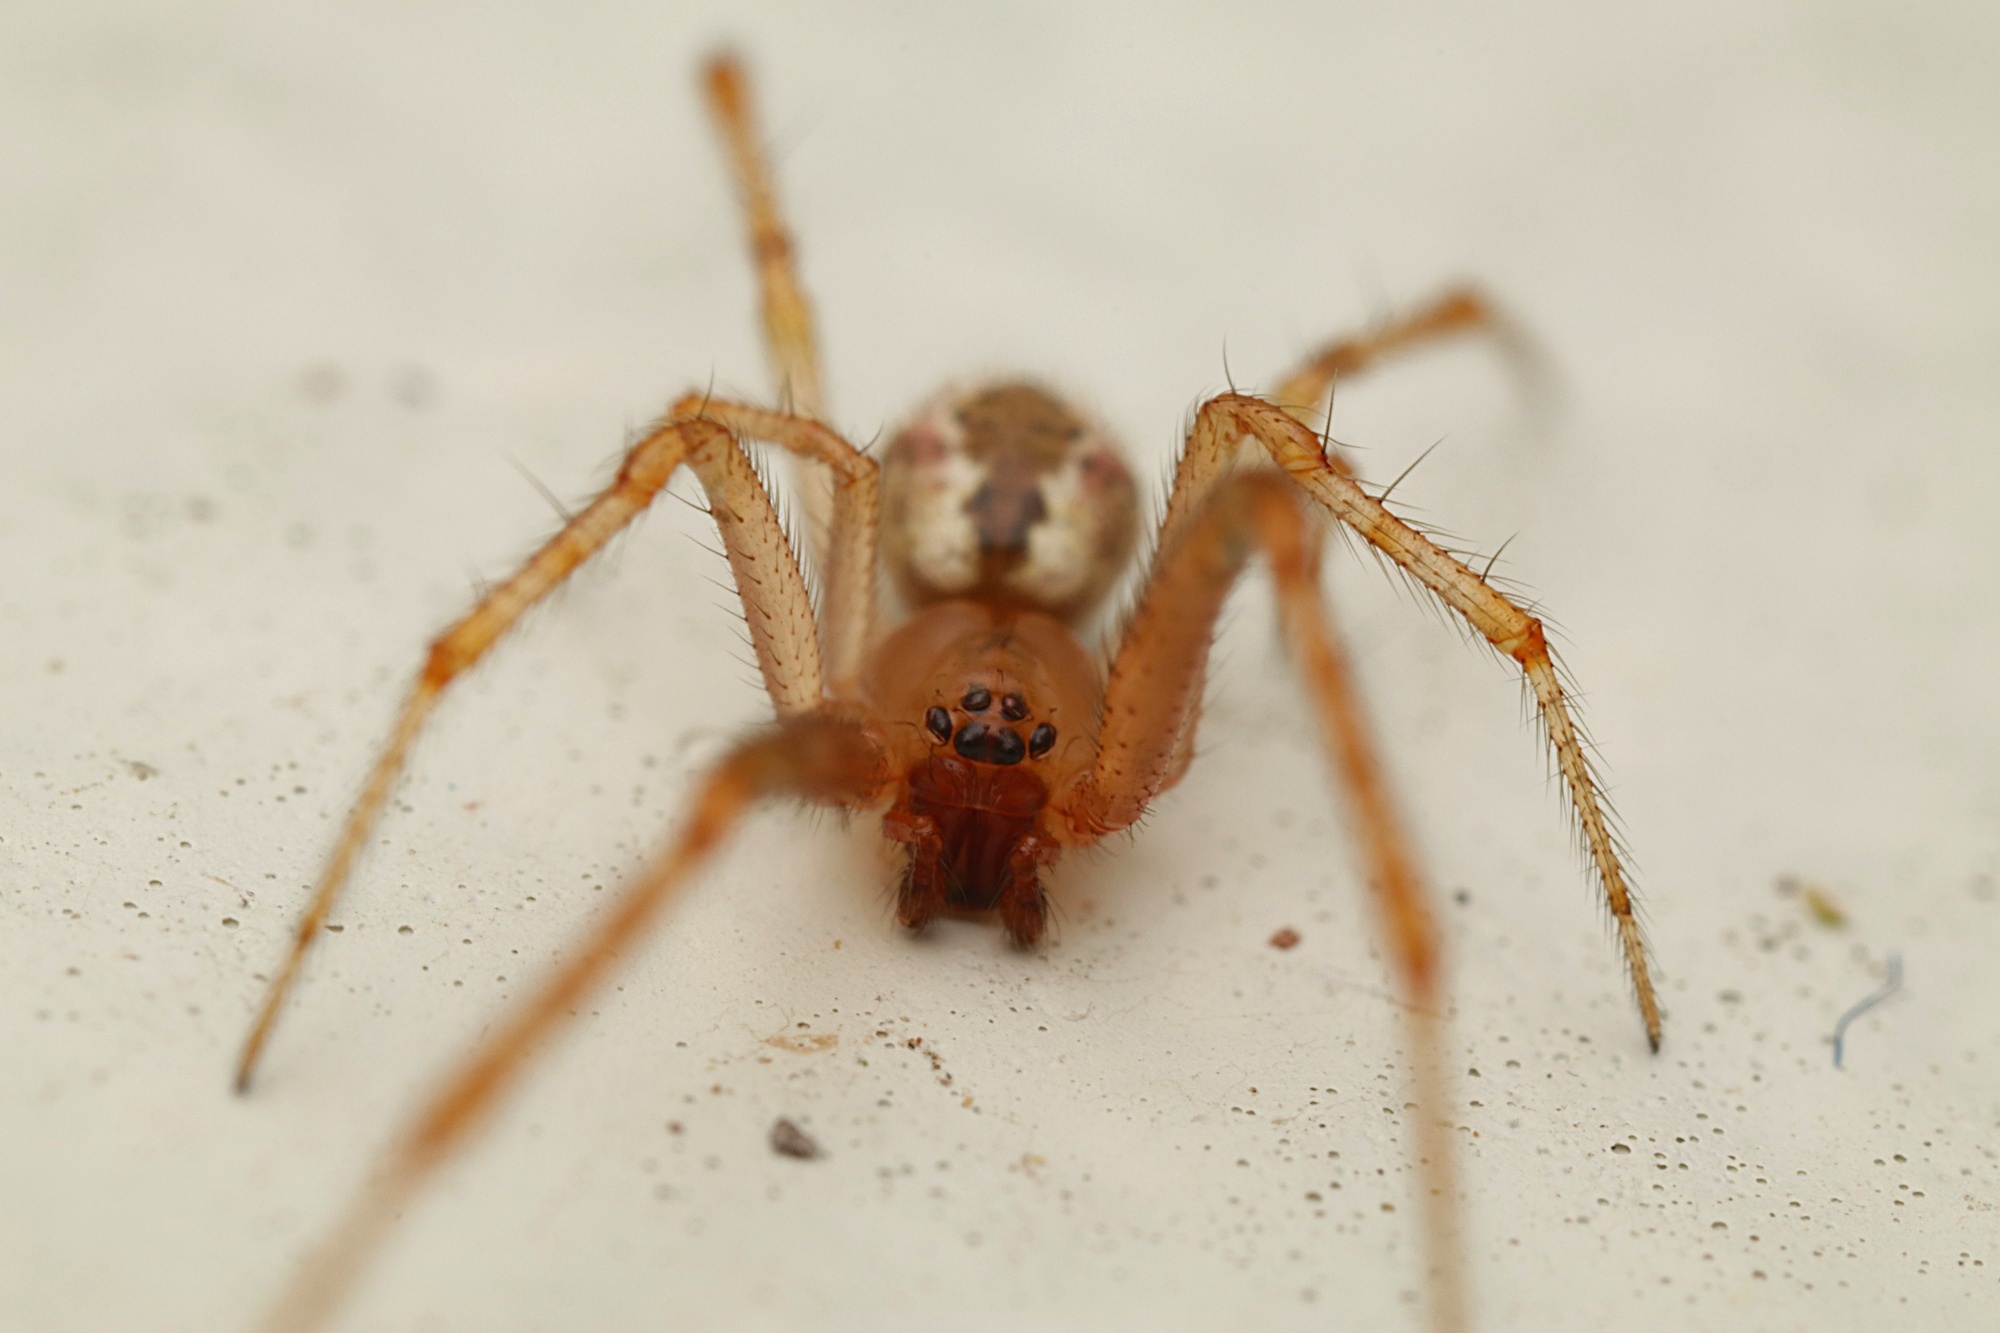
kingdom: Animalia
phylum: Arthropoda
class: Arachnida
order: Araneae
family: Theridiidae
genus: Cryptachaea
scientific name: Cryptachaea veruculata
